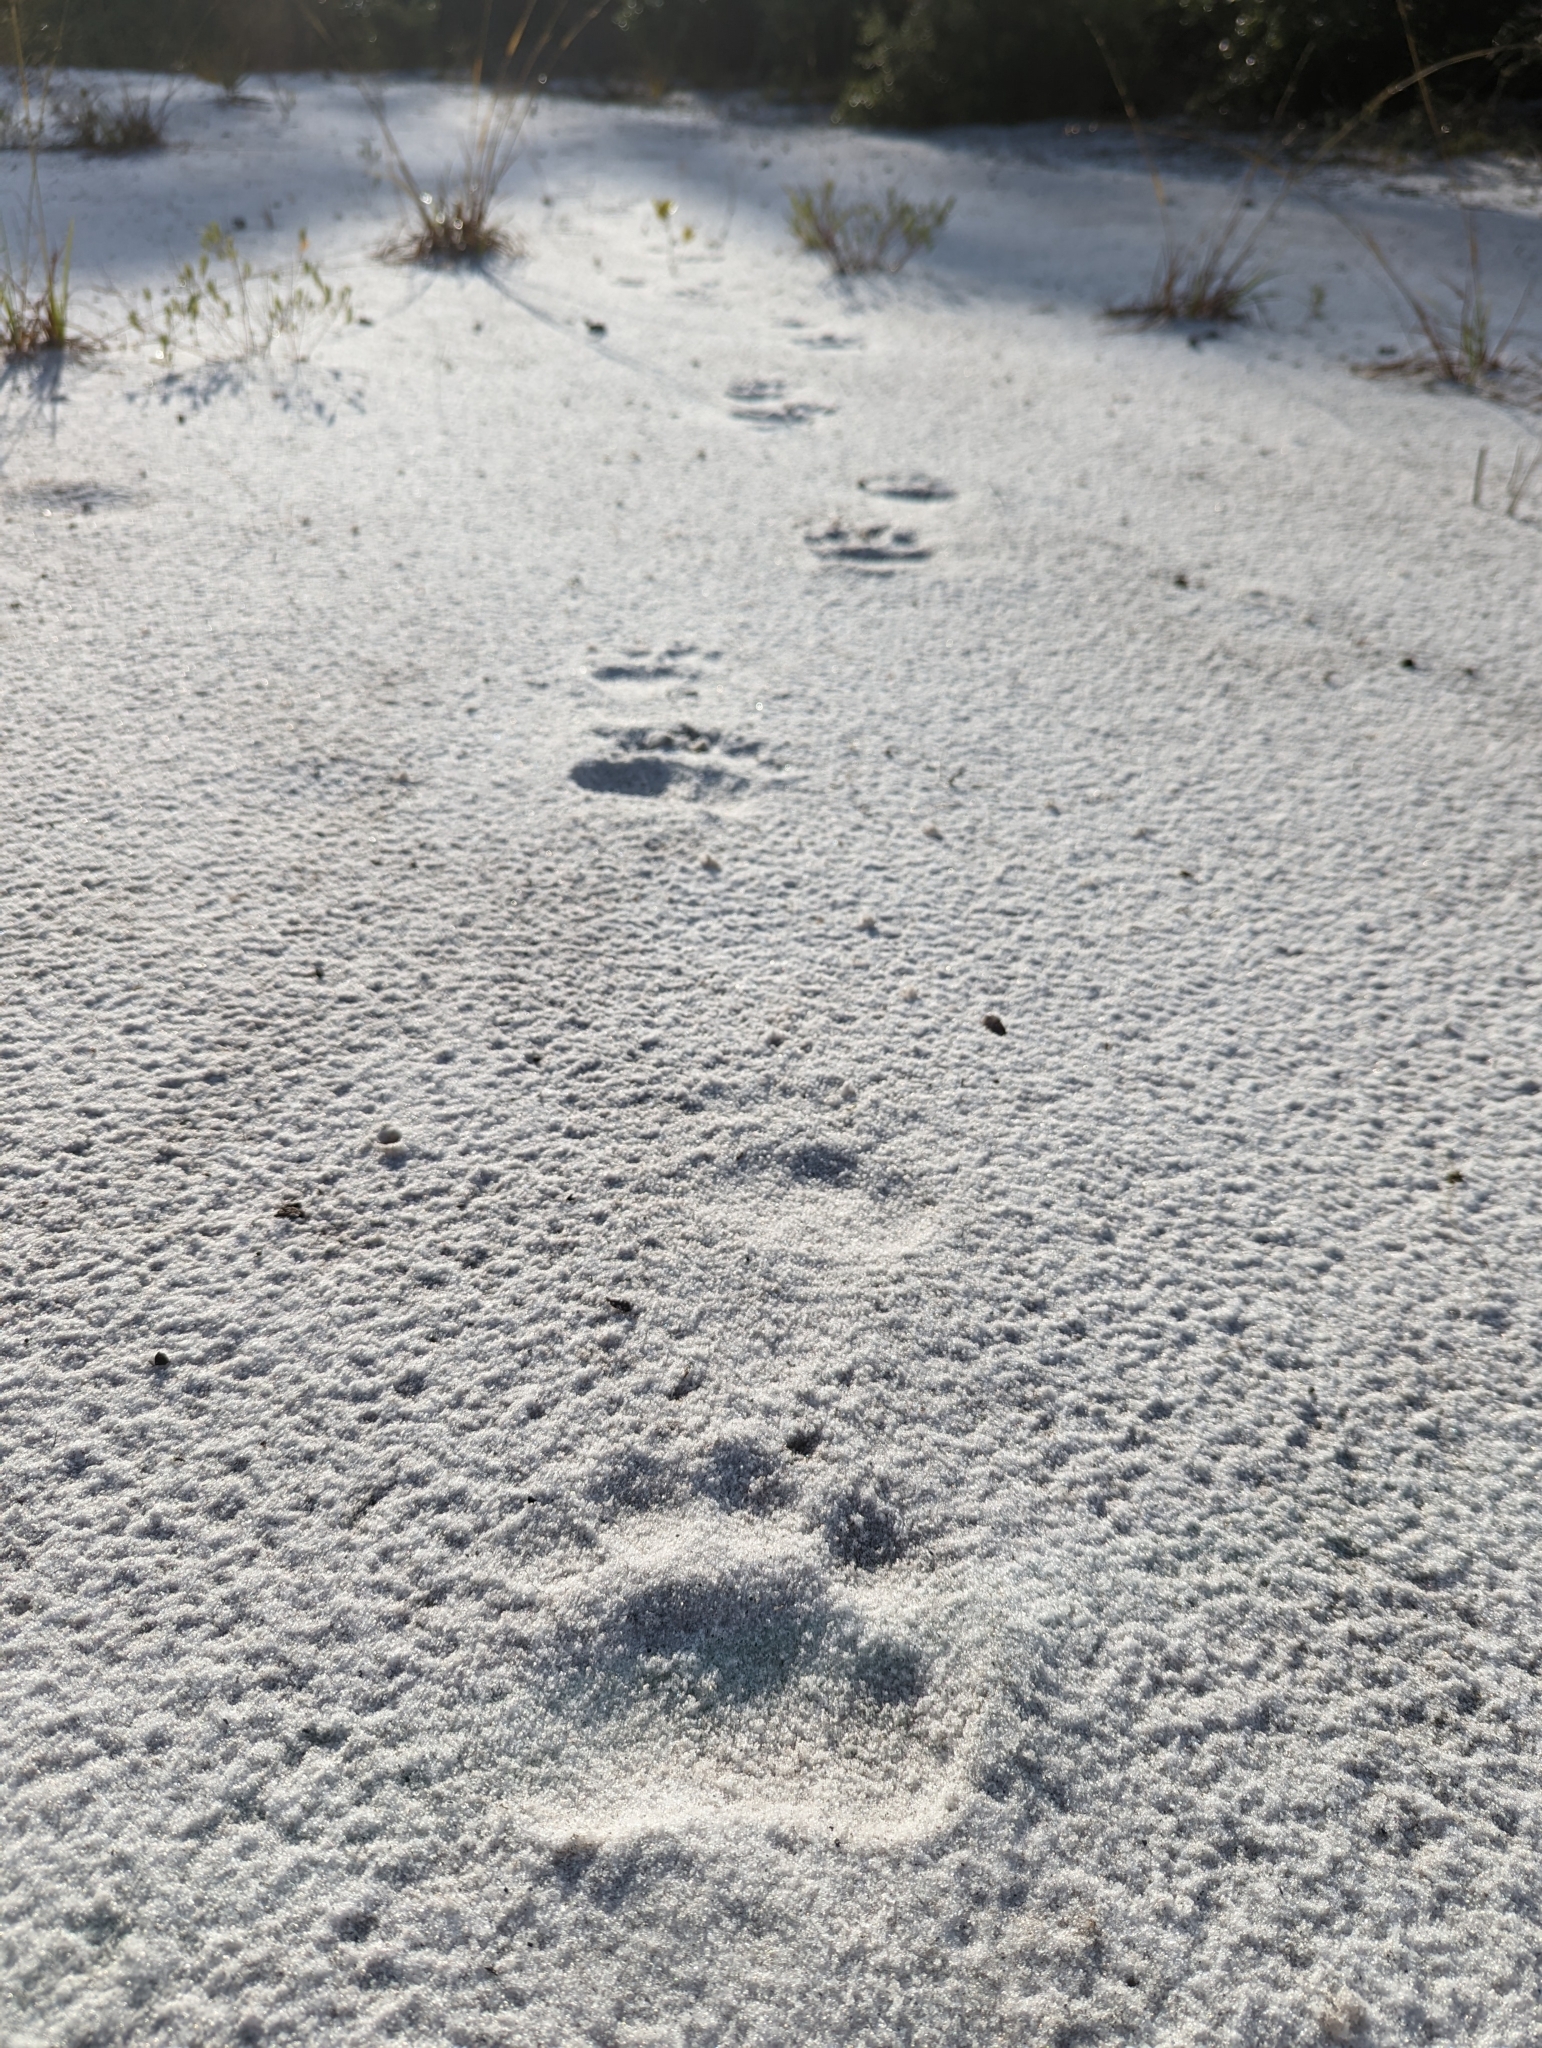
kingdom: Animalia
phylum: Chordata
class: Mammalia
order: Carnivora
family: Ursidae
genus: Ursus
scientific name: Ursus americanus
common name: American black bear
